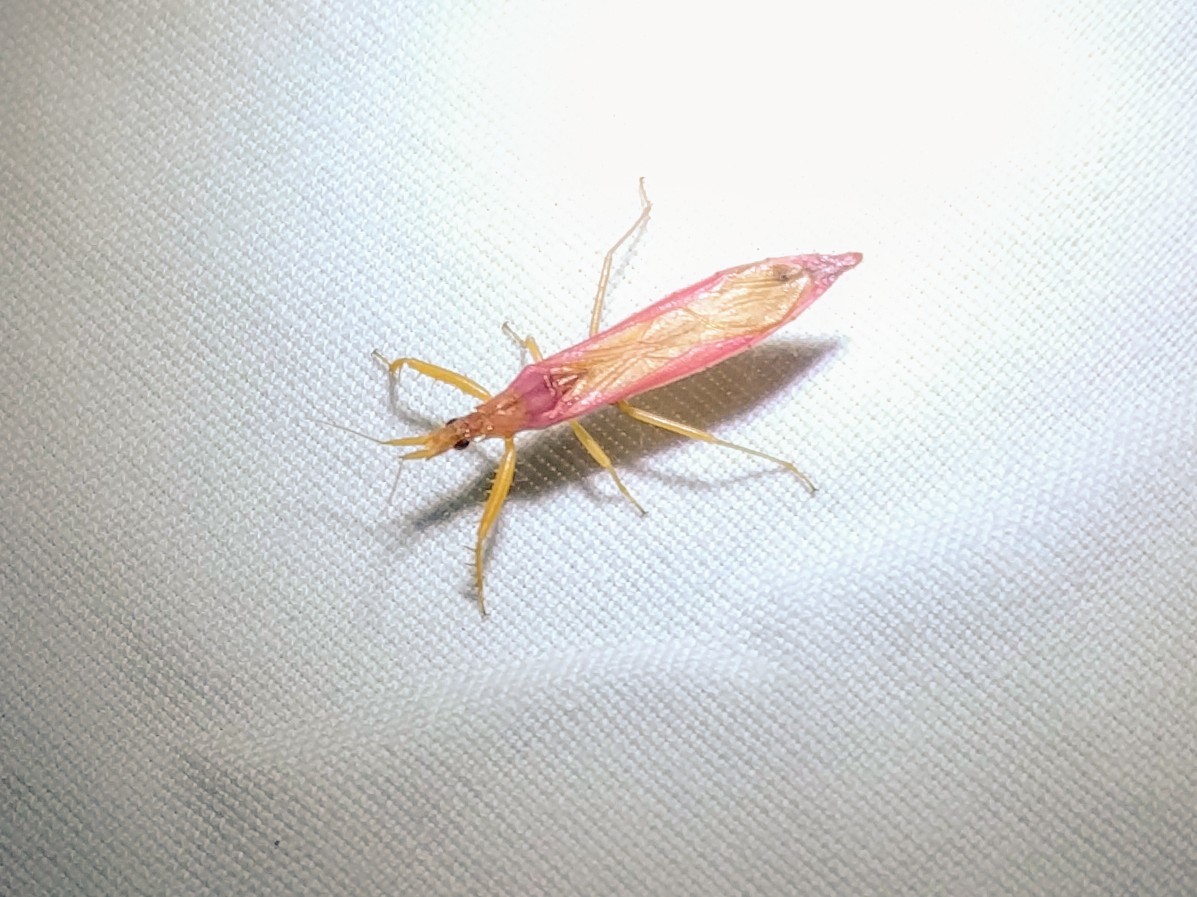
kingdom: Animalia
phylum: Arthropoda
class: Insecta
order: Hemiptera
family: Reduviidae
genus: Pnirontis
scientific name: Pnirontis languida
